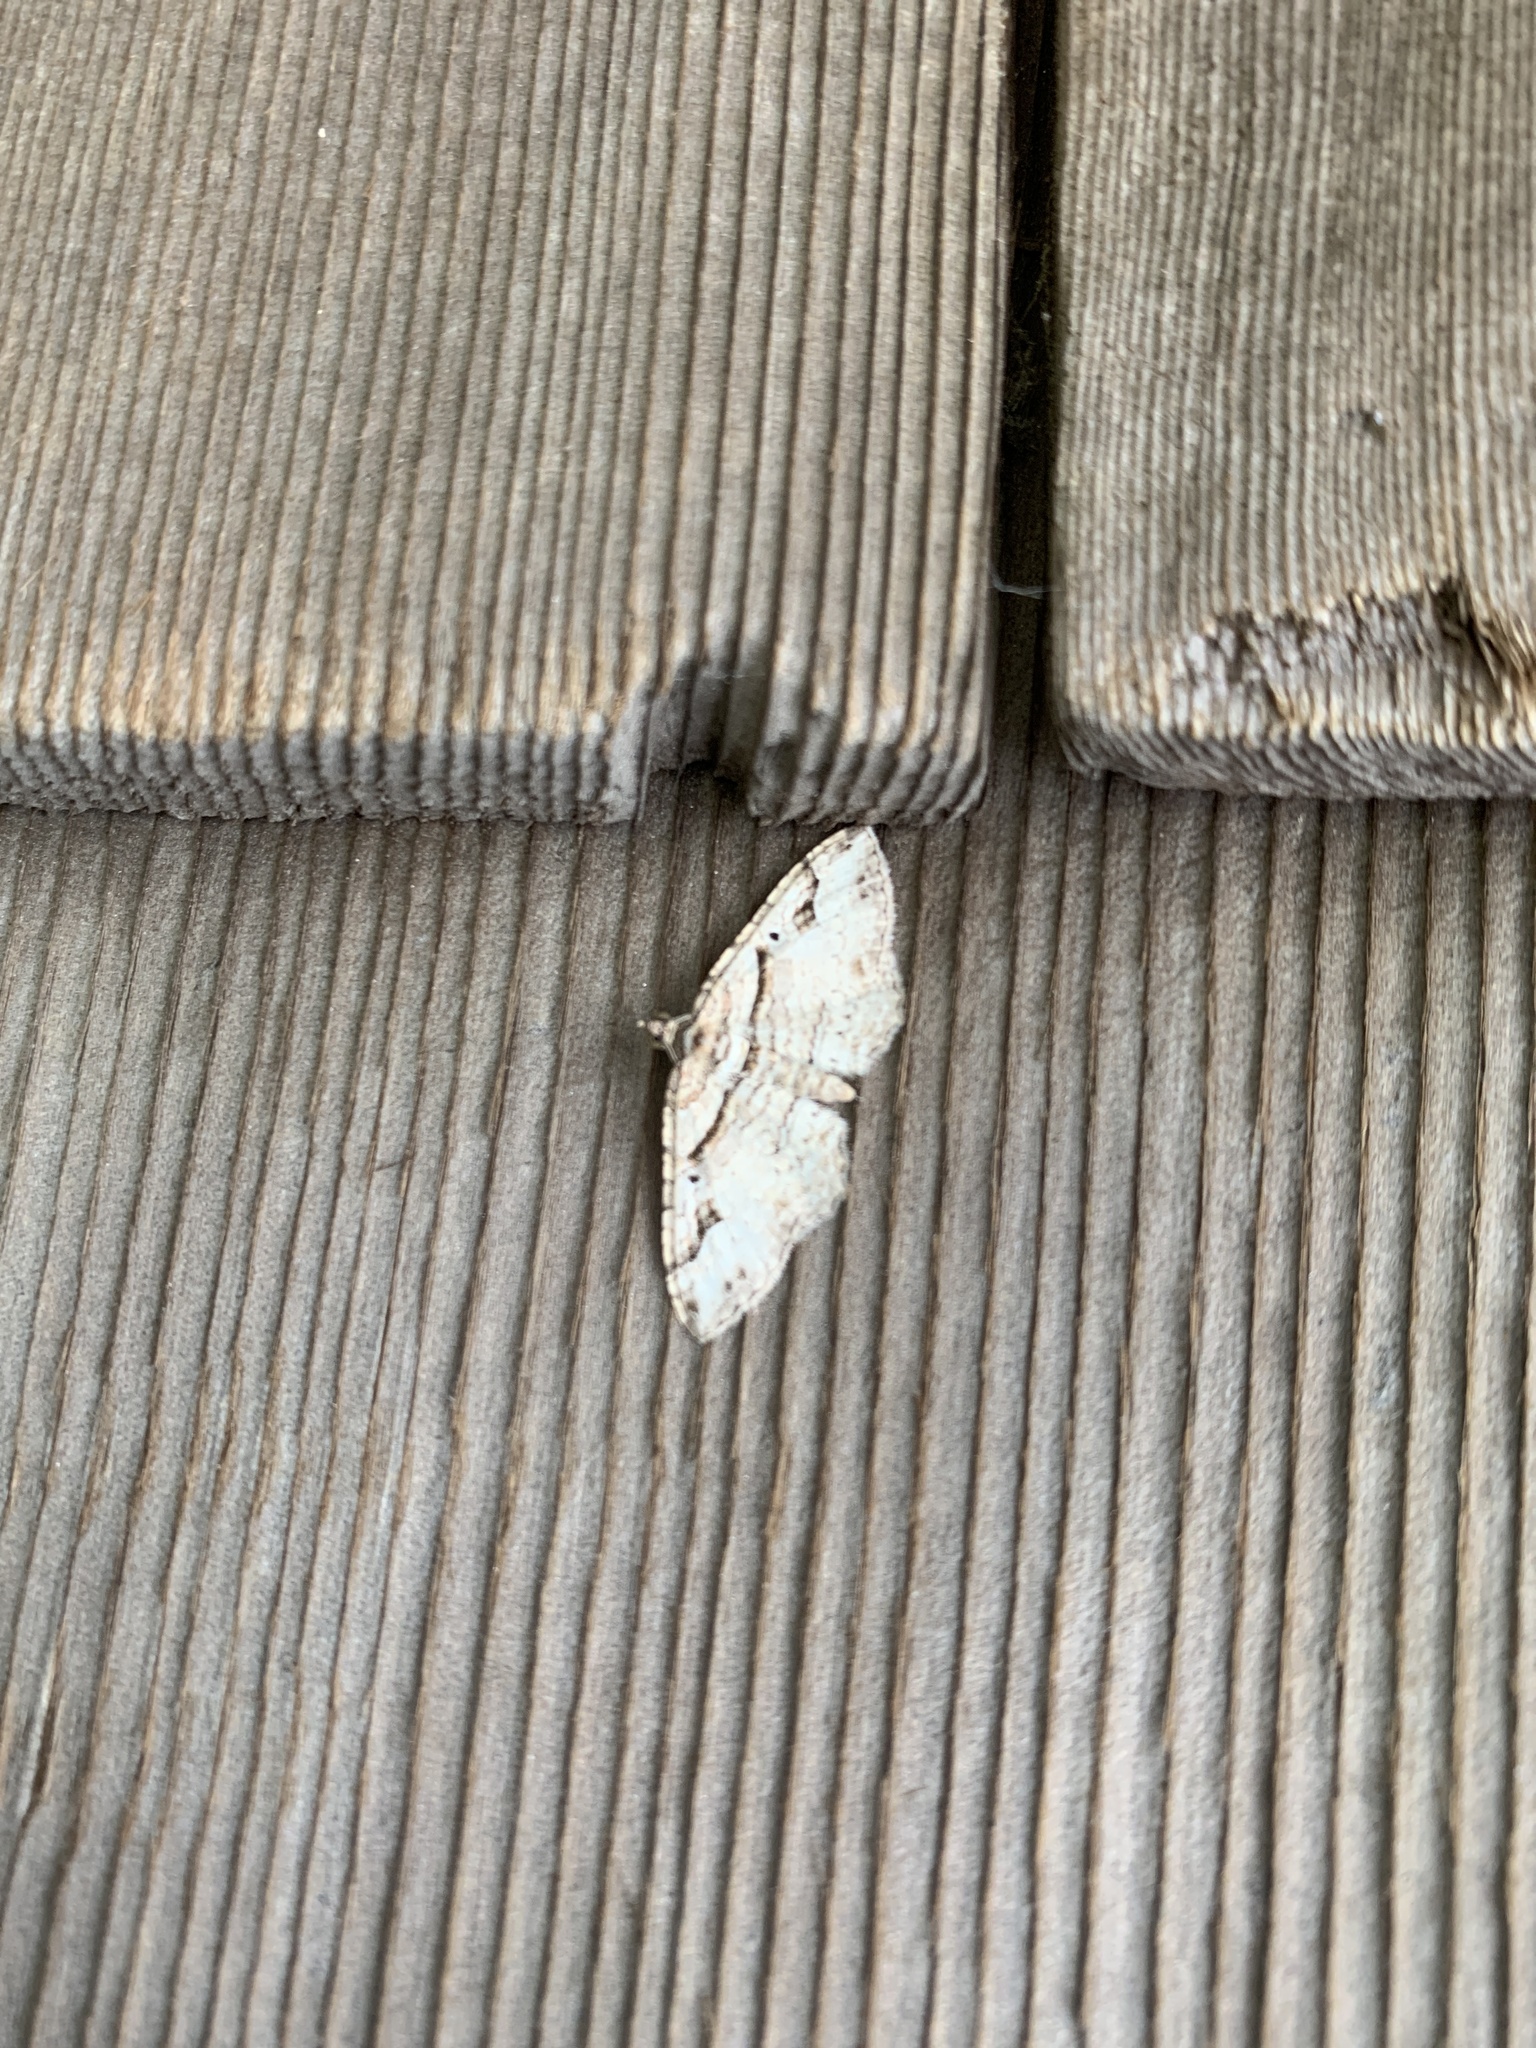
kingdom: Animalia
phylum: Arthropoda
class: Insecta
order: Lepidoptera
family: Geometridae
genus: Costaconvexa
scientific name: Costaconvexa centrostrigaria
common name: Bent-line carpet
